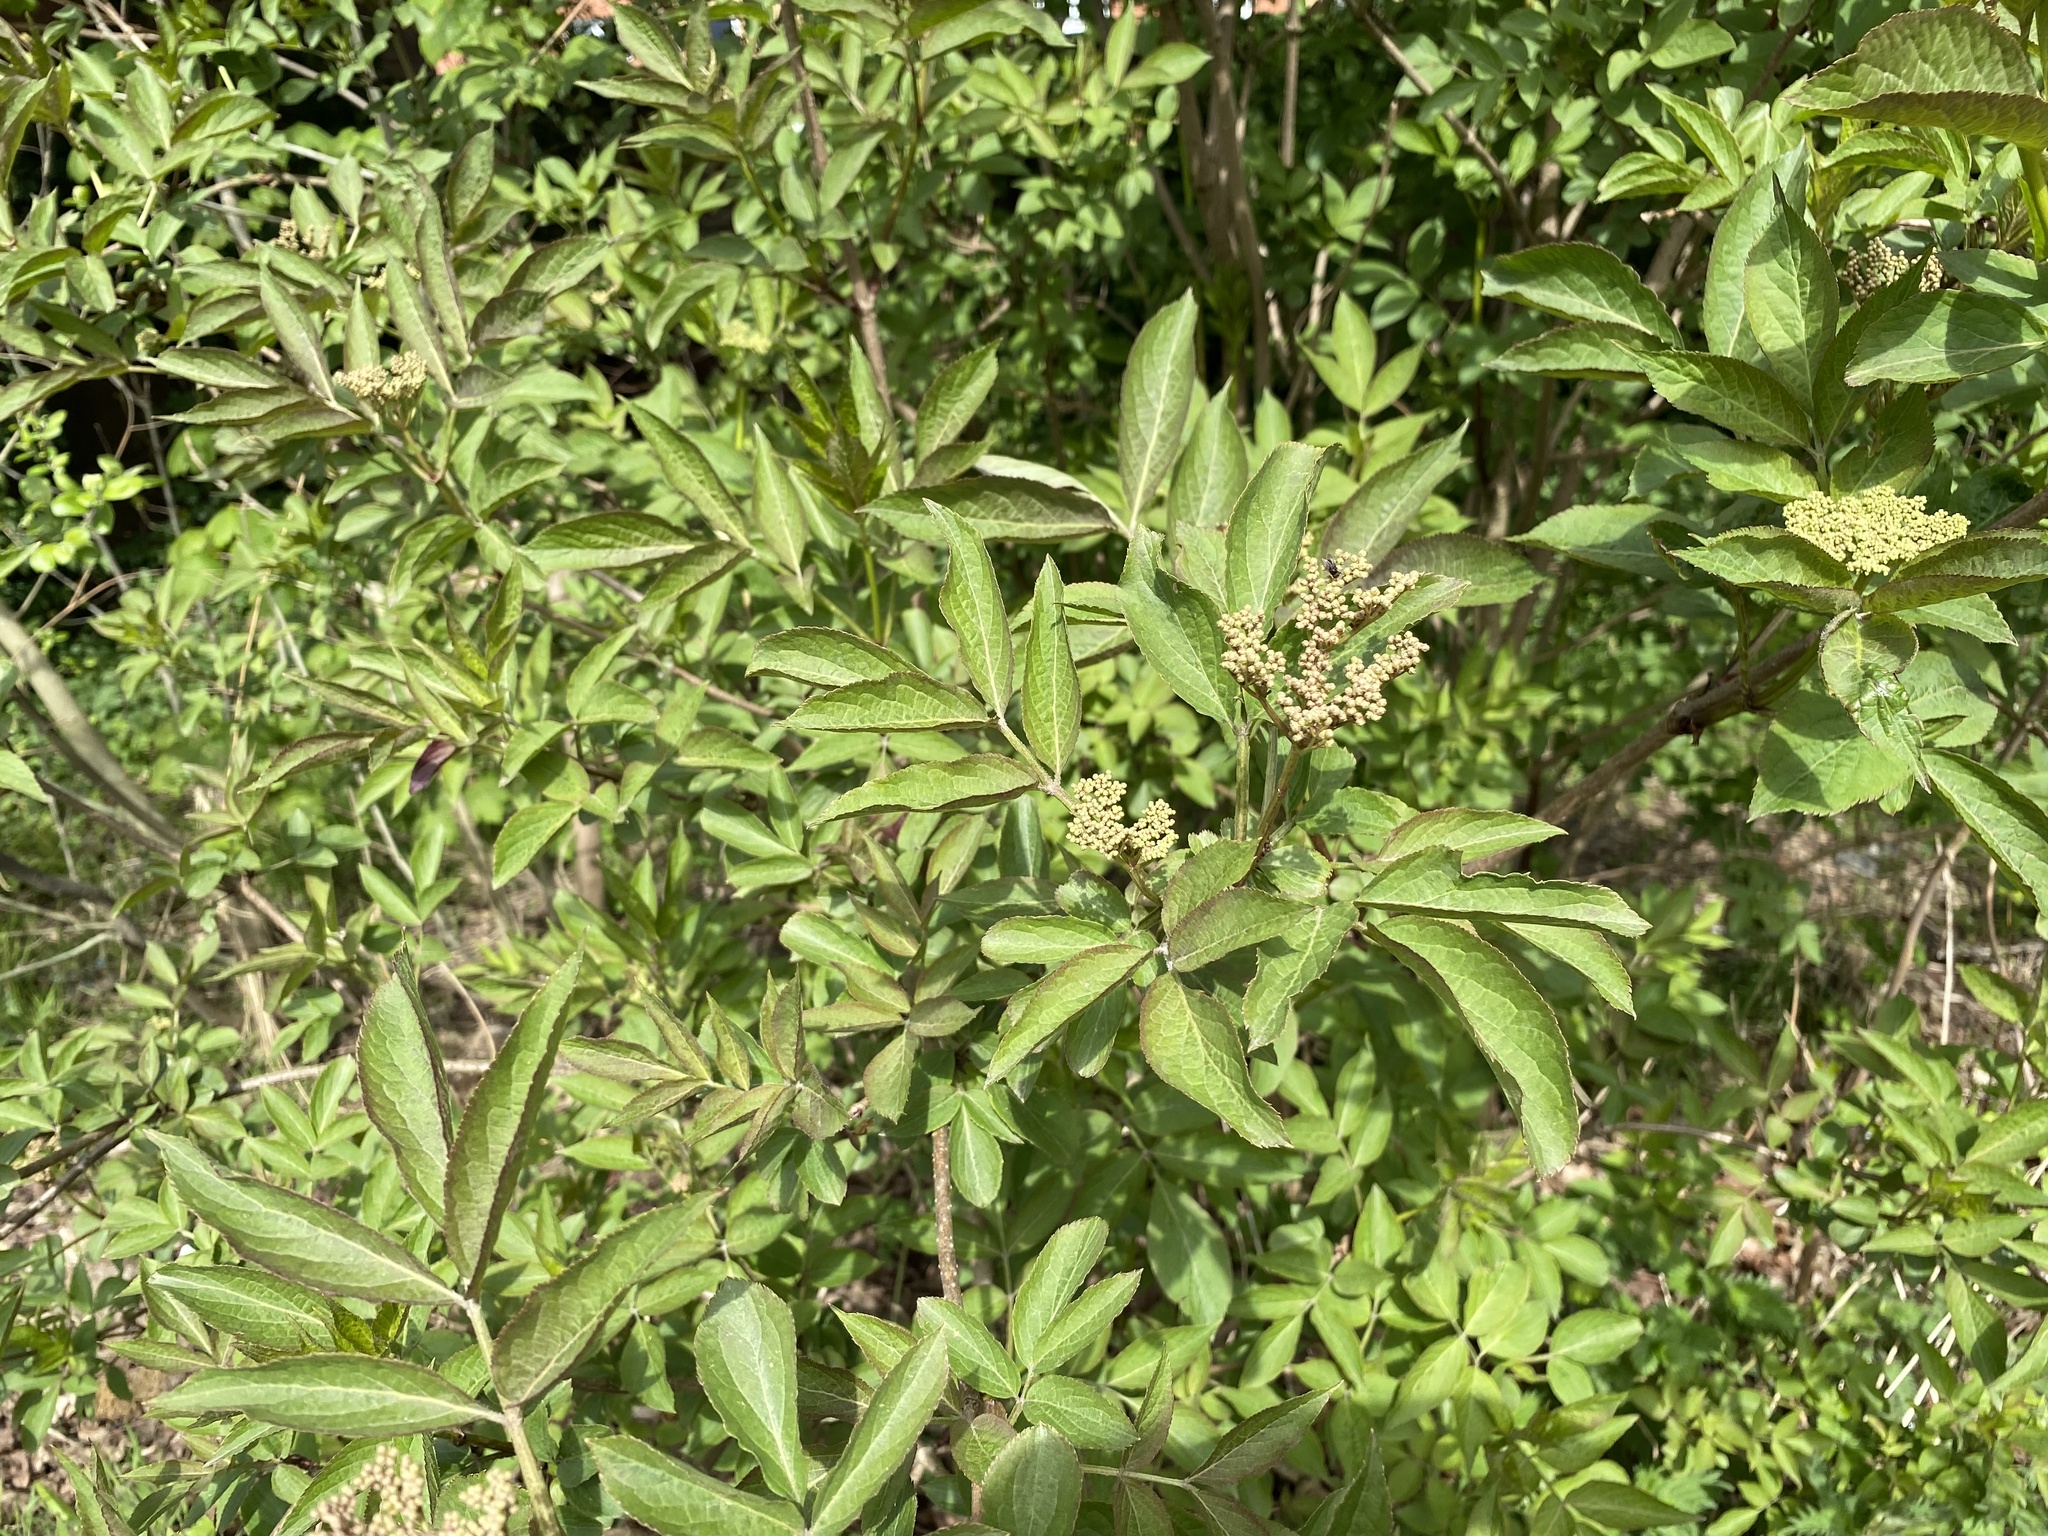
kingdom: Plantae
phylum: Tracheophyta
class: Magnoliopsida
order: Dipsacales
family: Viburnaceae
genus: Sambucus
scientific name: Sambucus nigra
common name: Elder
